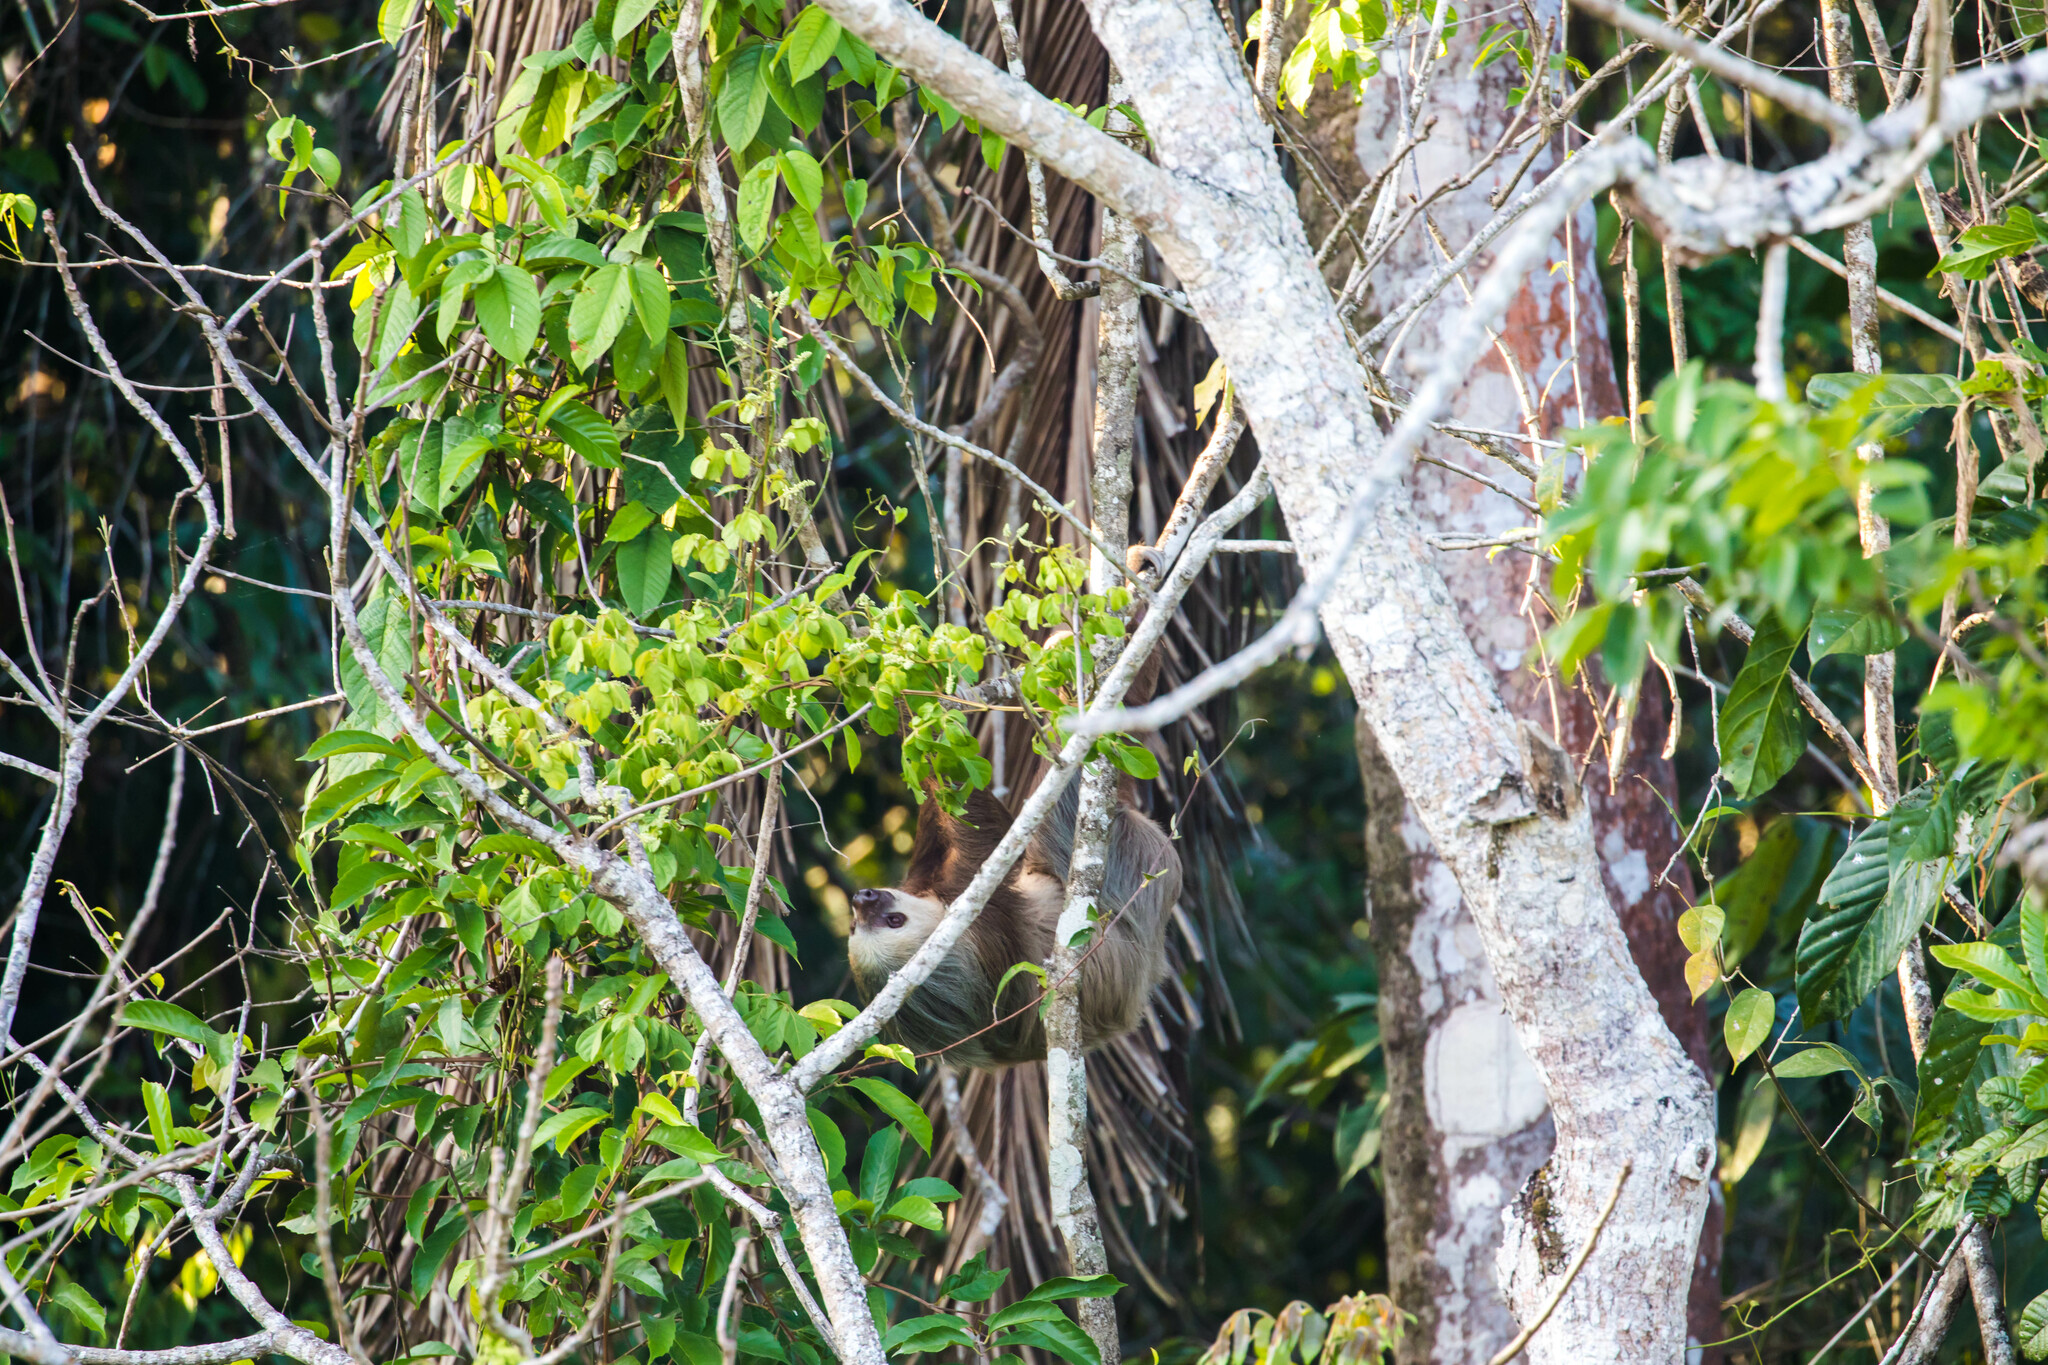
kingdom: Animalia
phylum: Chordata
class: Mammalia
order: Pilosa
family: Megalonychidae
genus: Choloepus
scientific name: Choloepus hoffmanni
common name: Hoffmann's two-toed sloth
